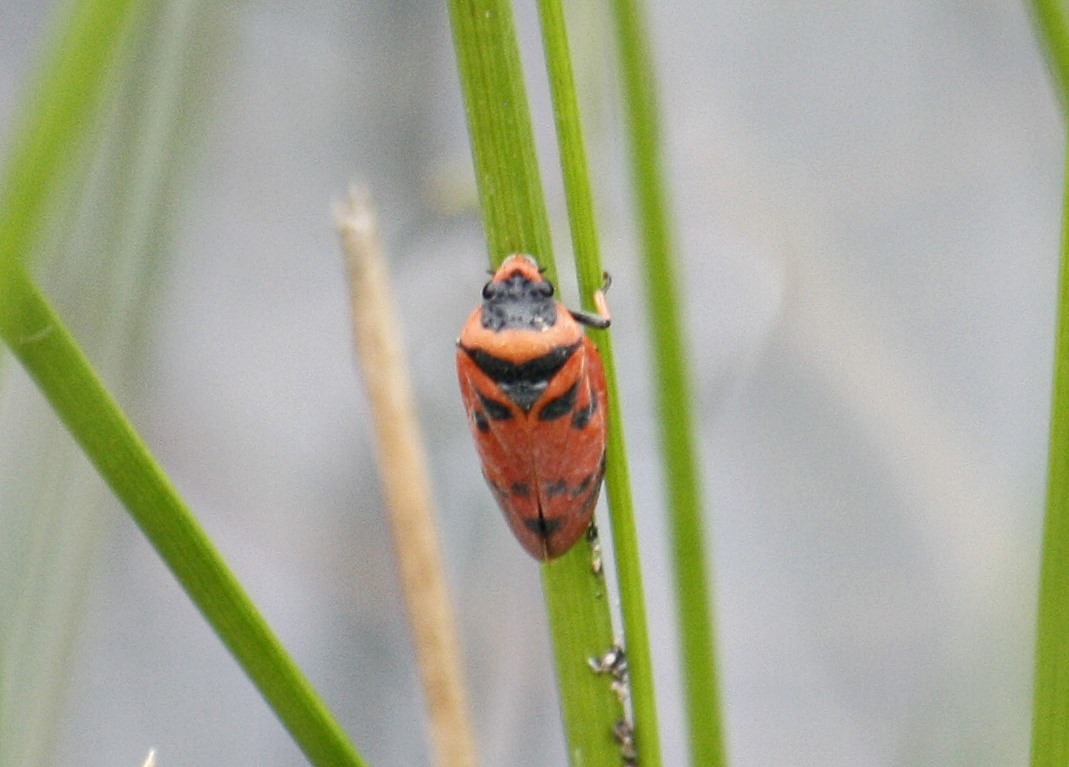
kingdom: Animalia
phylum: Arthropoda
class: Insecta
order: Hemiptera
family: Cercopidae
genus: Locris
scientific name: Locris arithmetica
